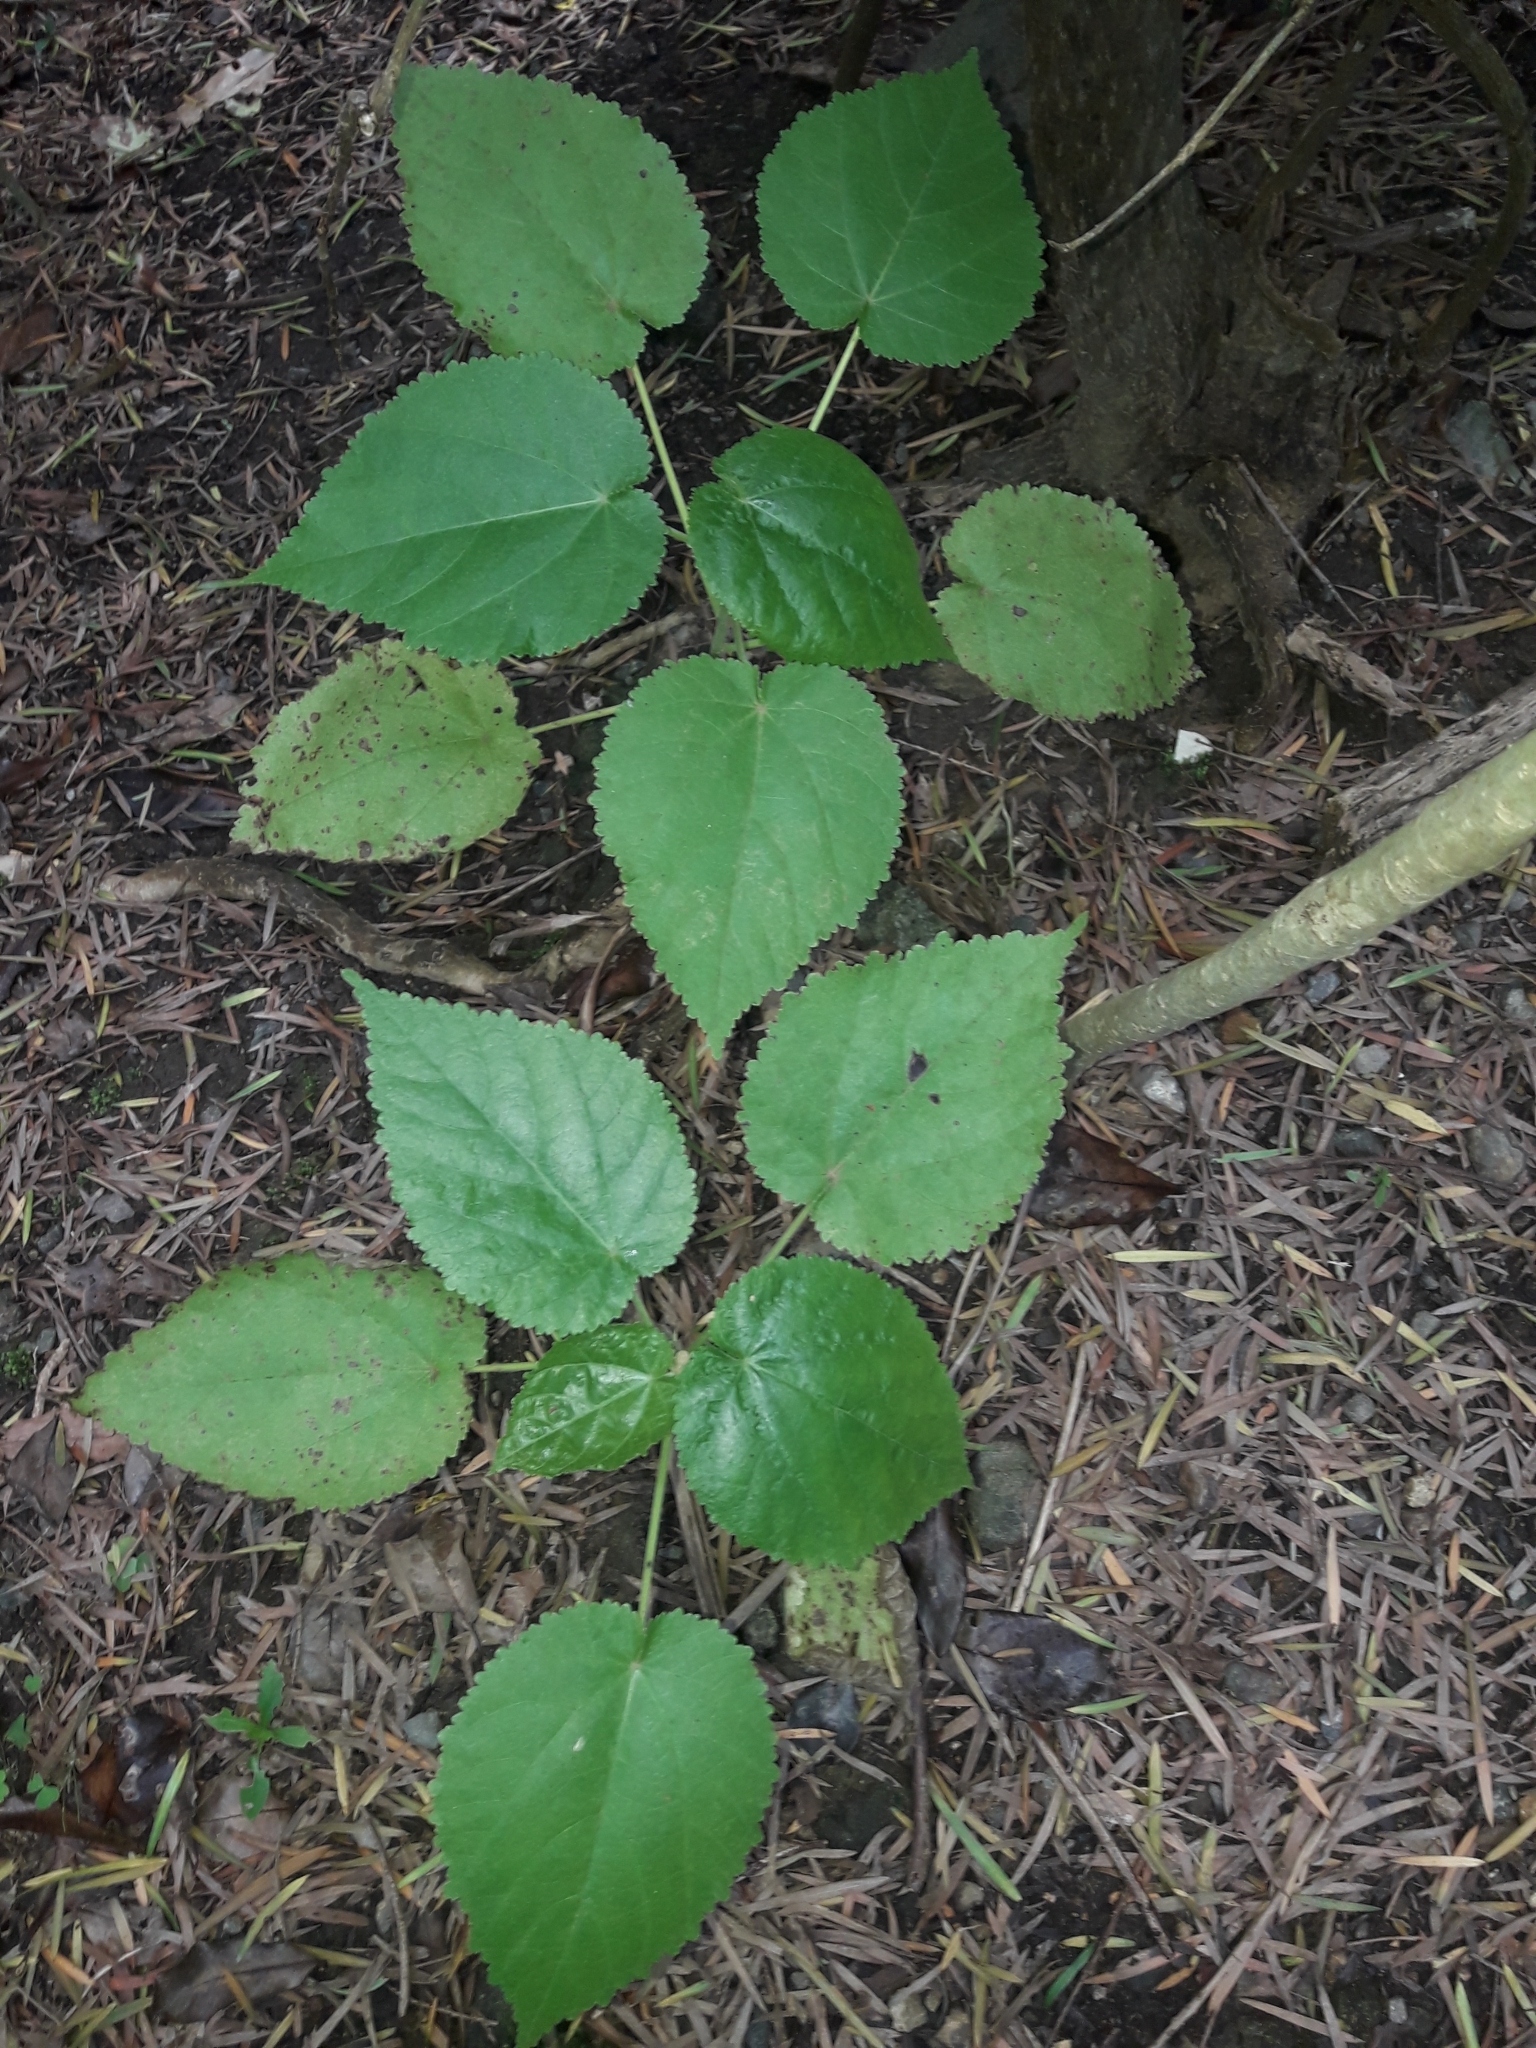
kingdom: Plantae
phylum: Tracheophyta
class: Magnoliopsida
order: Malvales
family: Malvaceae
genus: Entelea
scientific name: Entelea arborescens
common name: New zealand-mulberry
